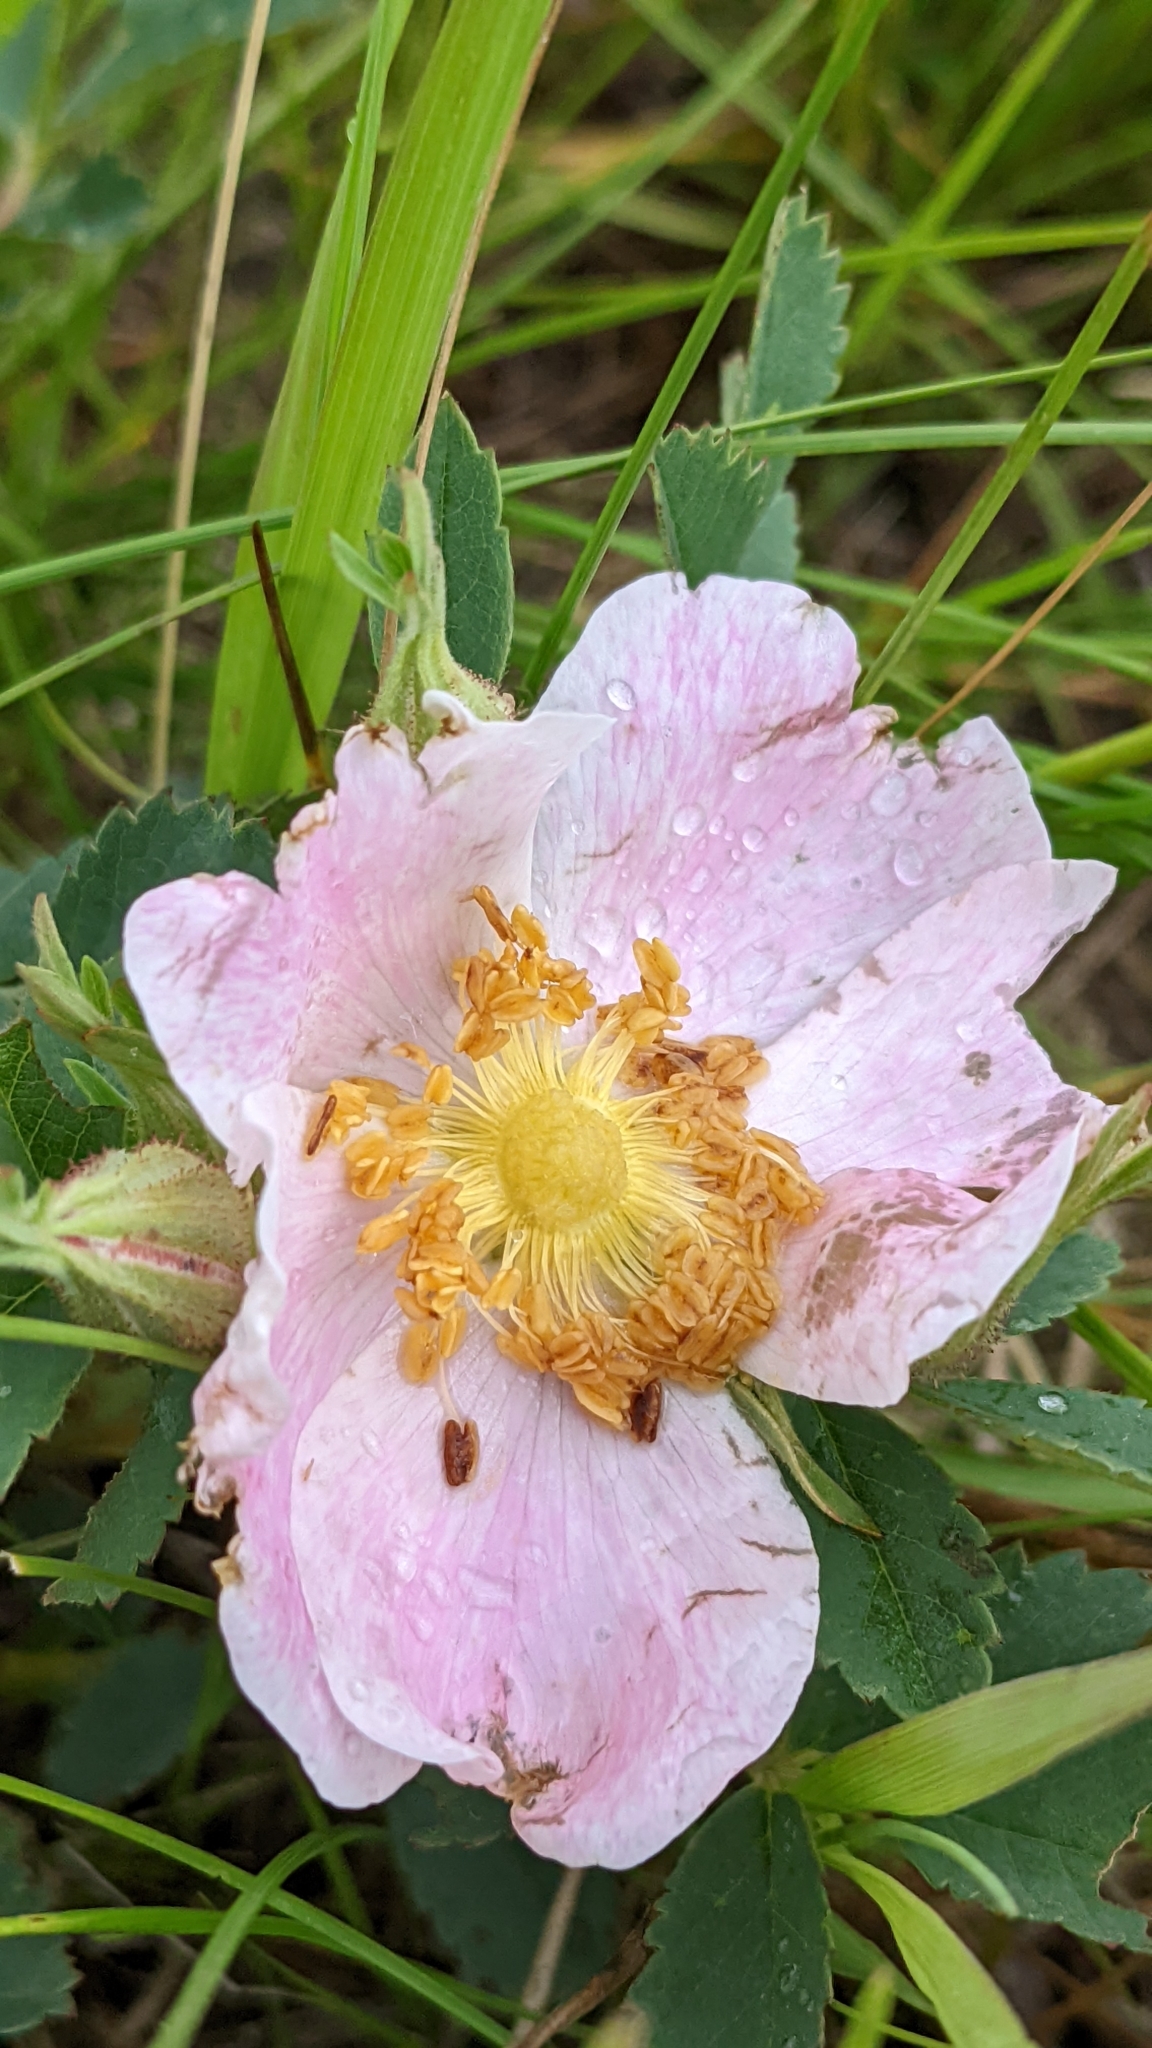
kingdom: Plantae
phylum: Tracheophyta
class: Magnoliopsida
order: Rosales
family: Rosaceae
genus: Rosa
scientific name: Rosa arkansana
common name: Prairie rose
